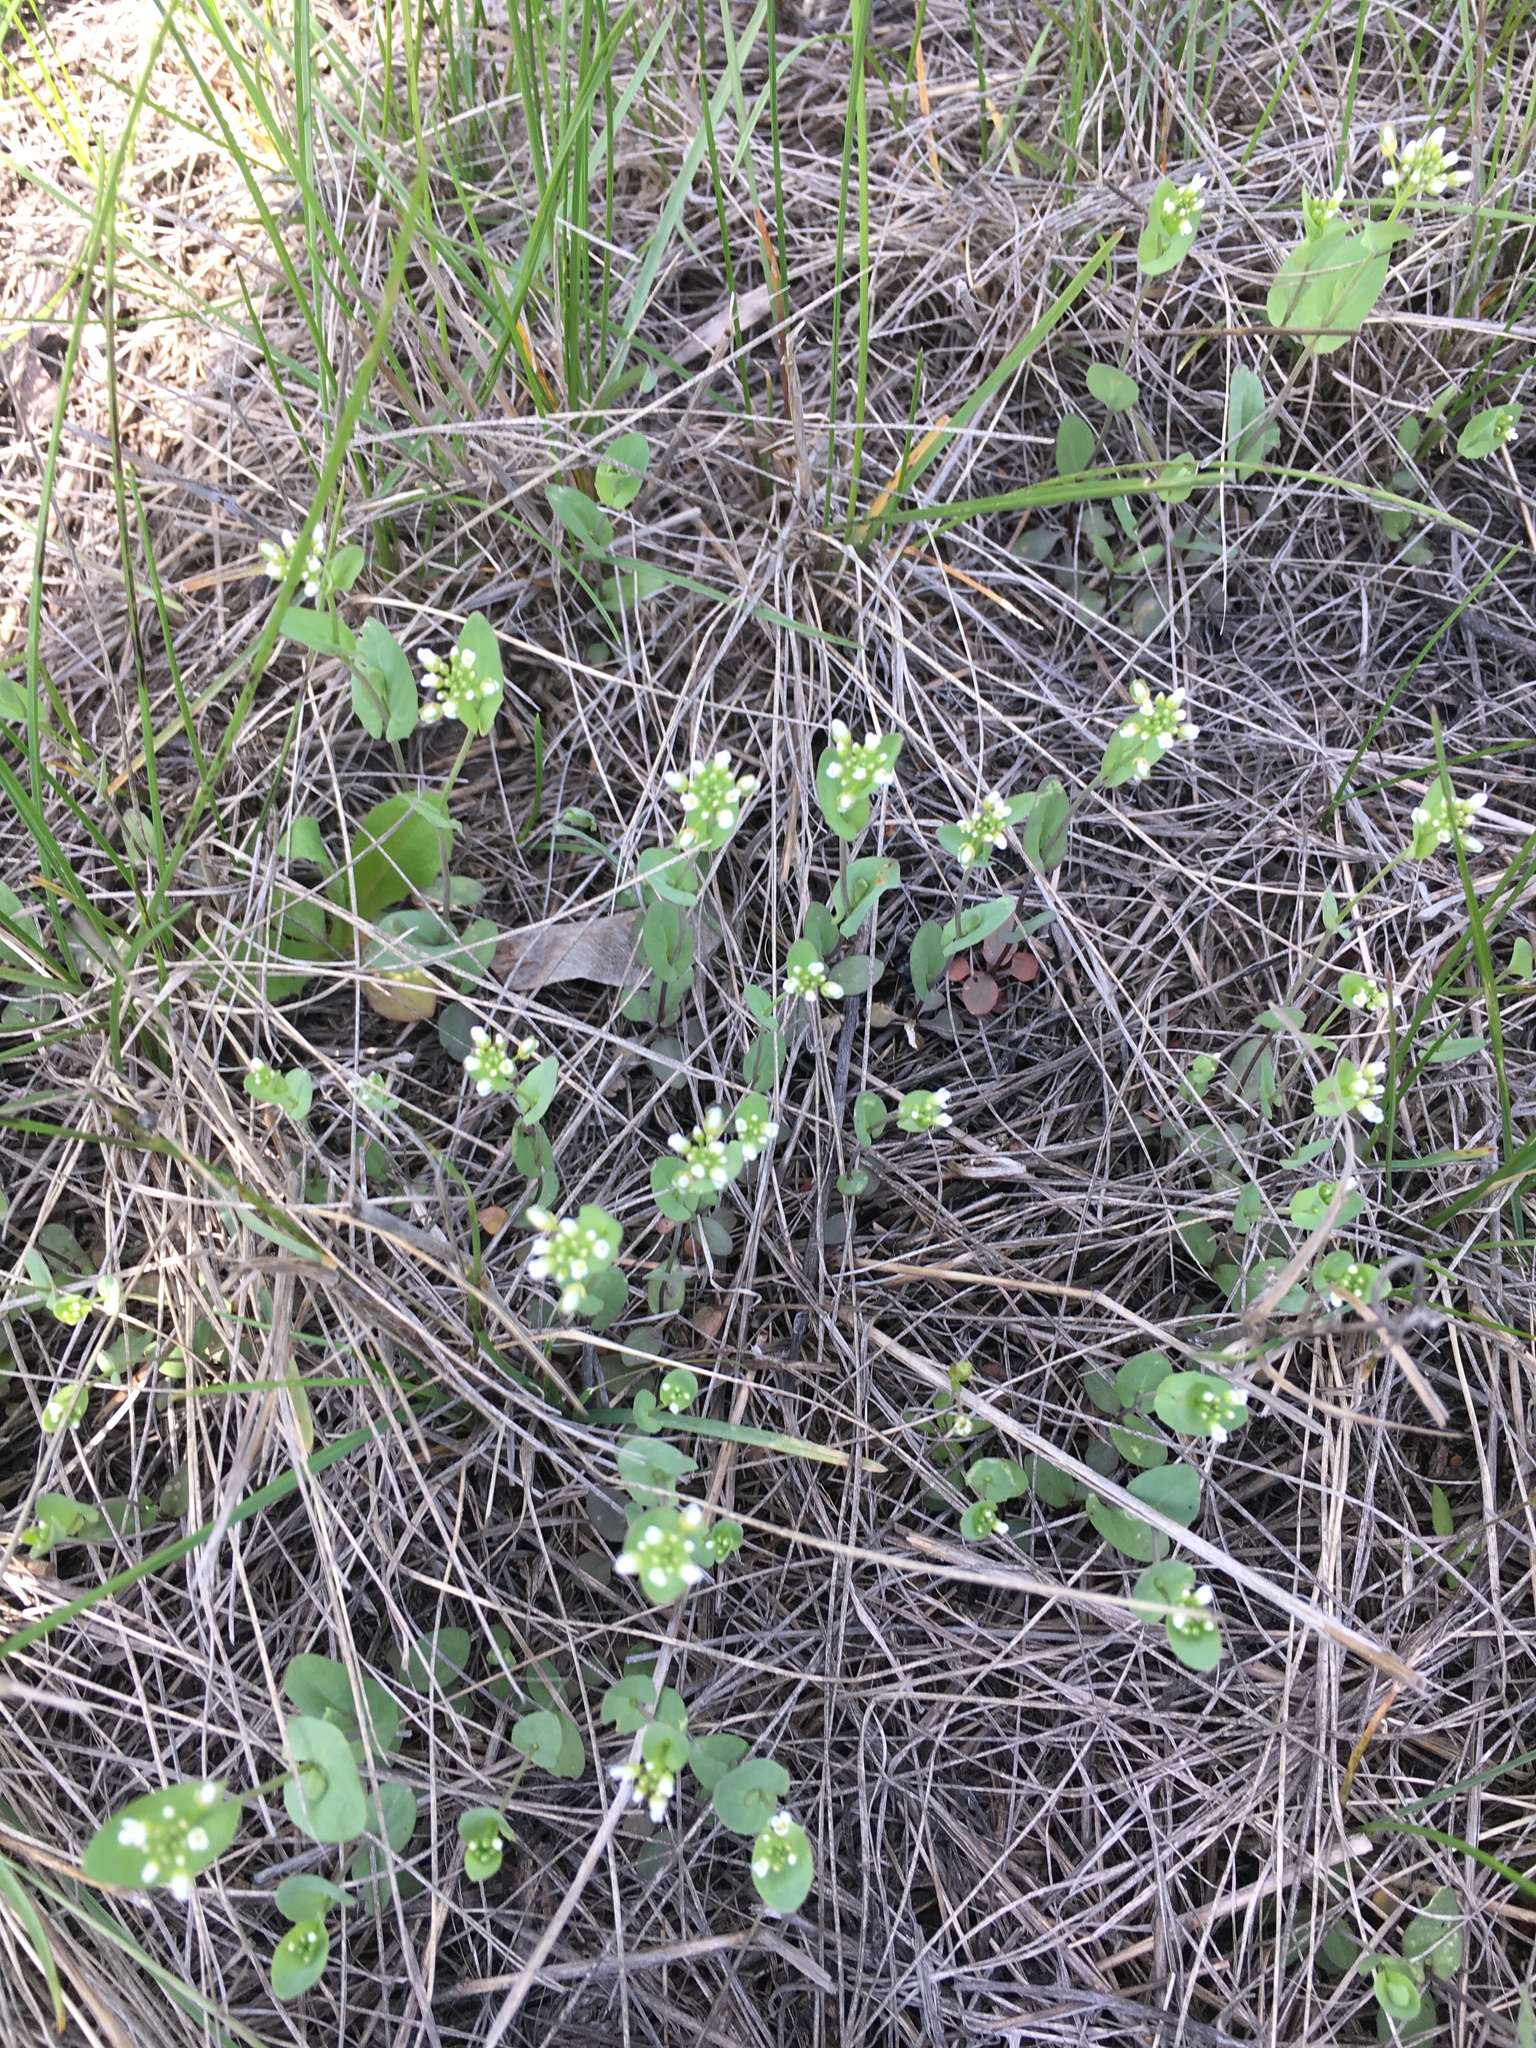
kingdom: Plantae
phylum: Tracheophyta
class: Magnoliopsida
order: Brassicales
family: Brassicaceae
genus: Noccaea
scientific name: Noccaea perfoliata
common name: Perfoliate pennycress
